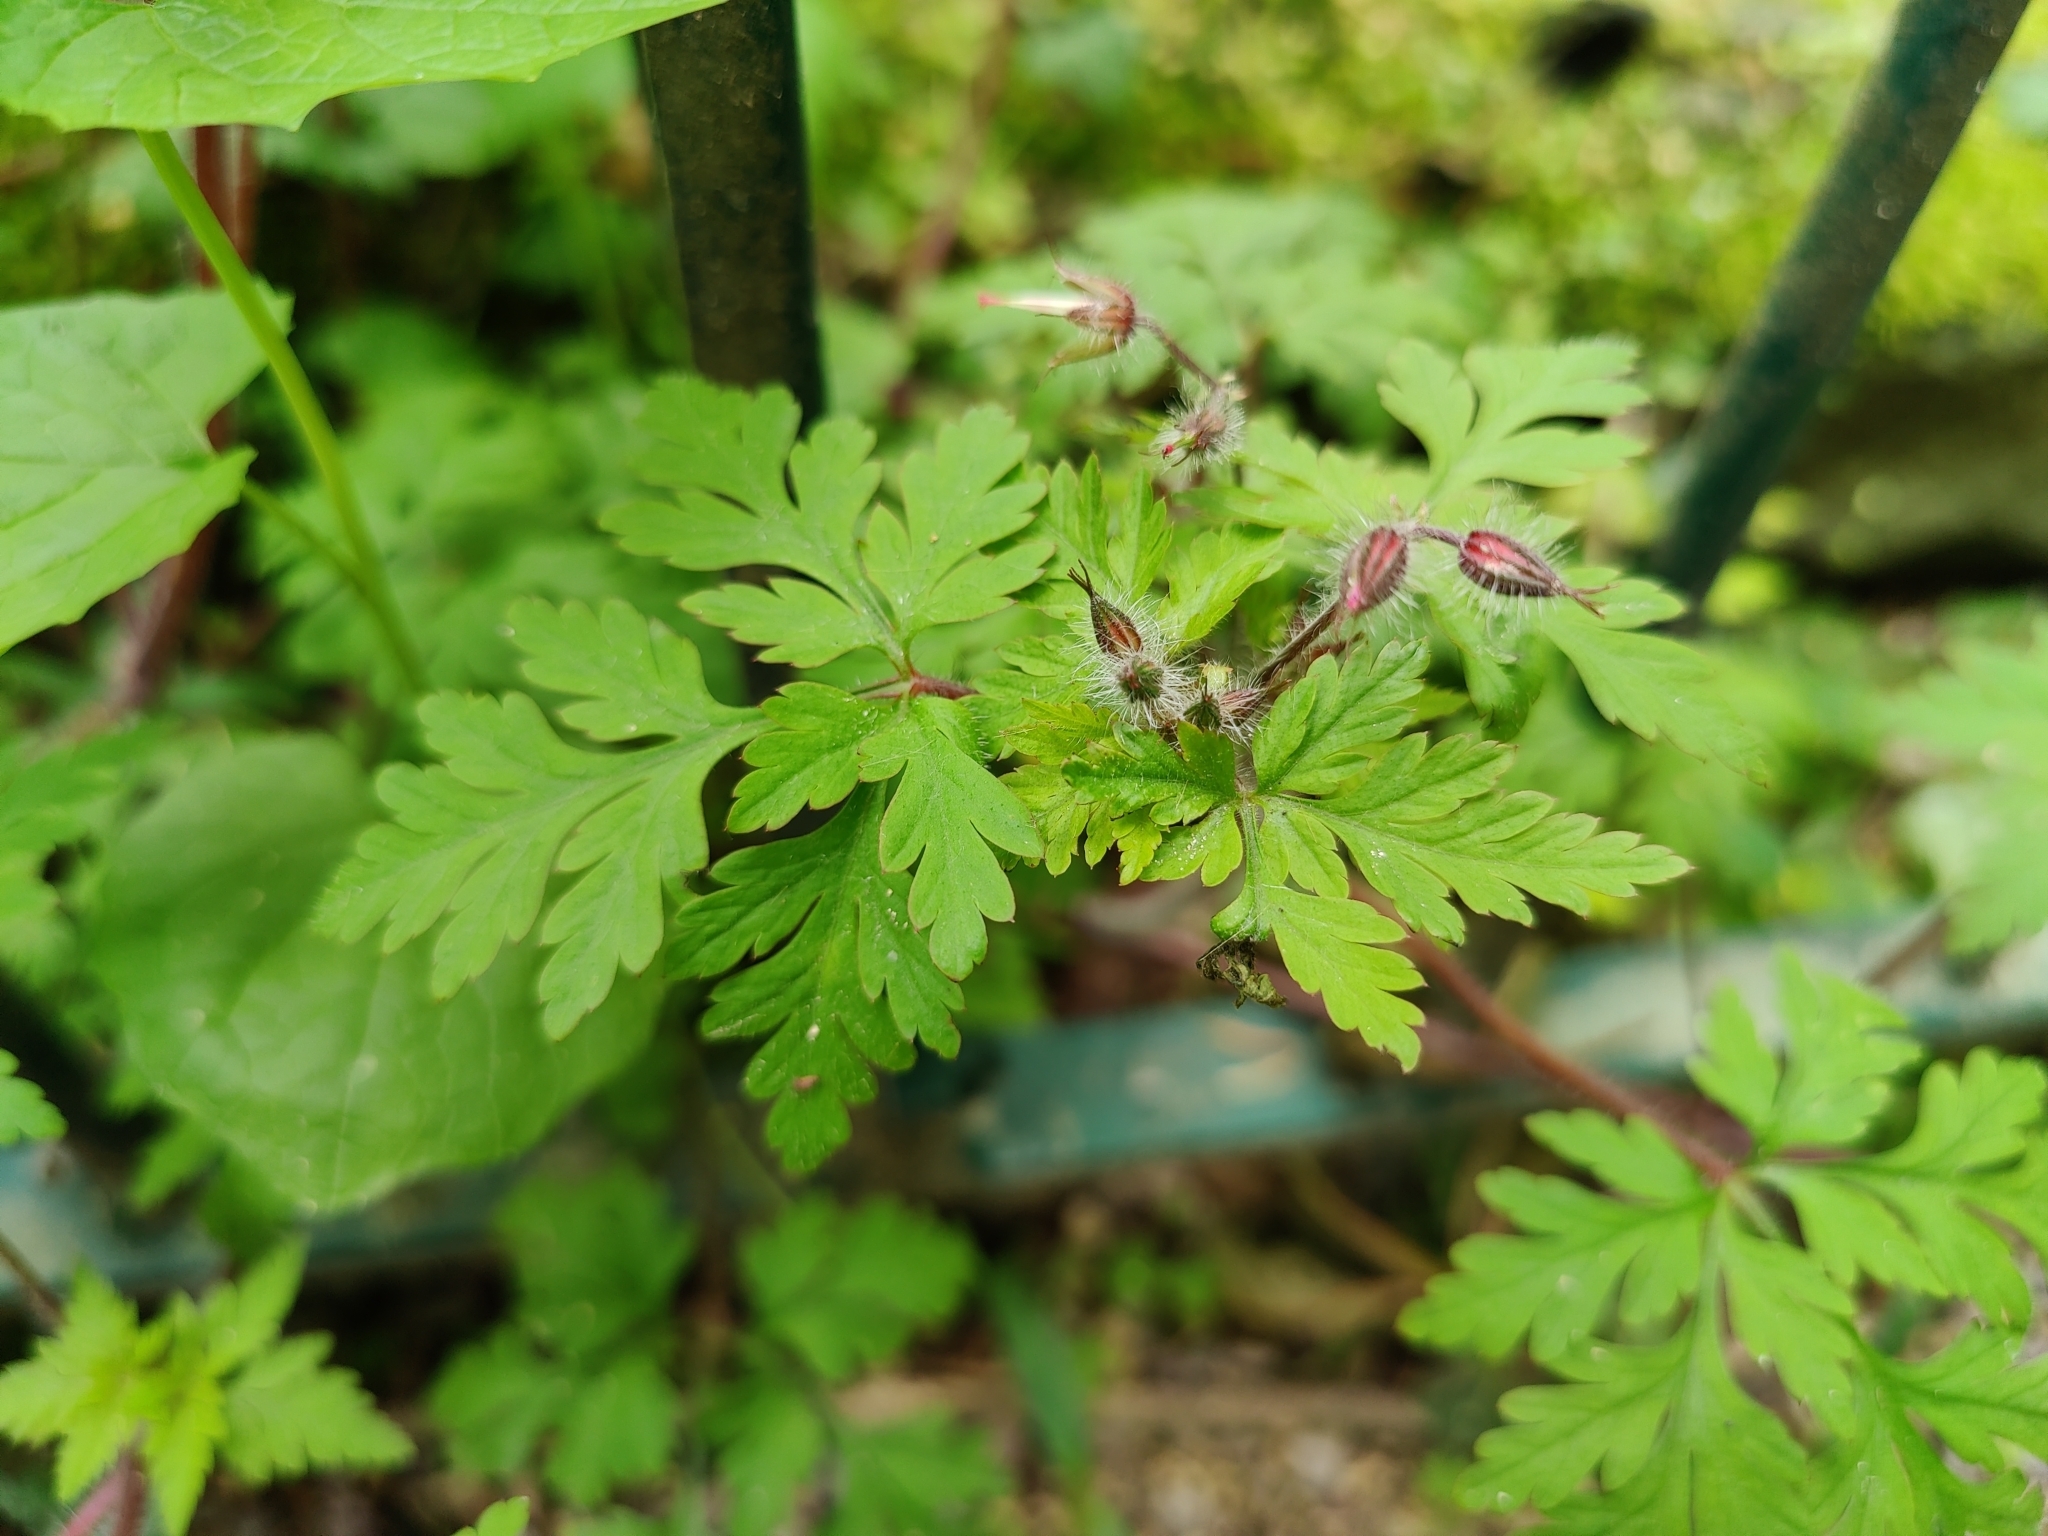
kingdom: Plantae
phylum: Tracheophyta
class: Magnoliopsida
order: Geraniales
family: Geraniaceae
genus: Geranium
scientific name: Geranium robertianum
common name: Herb-robert
